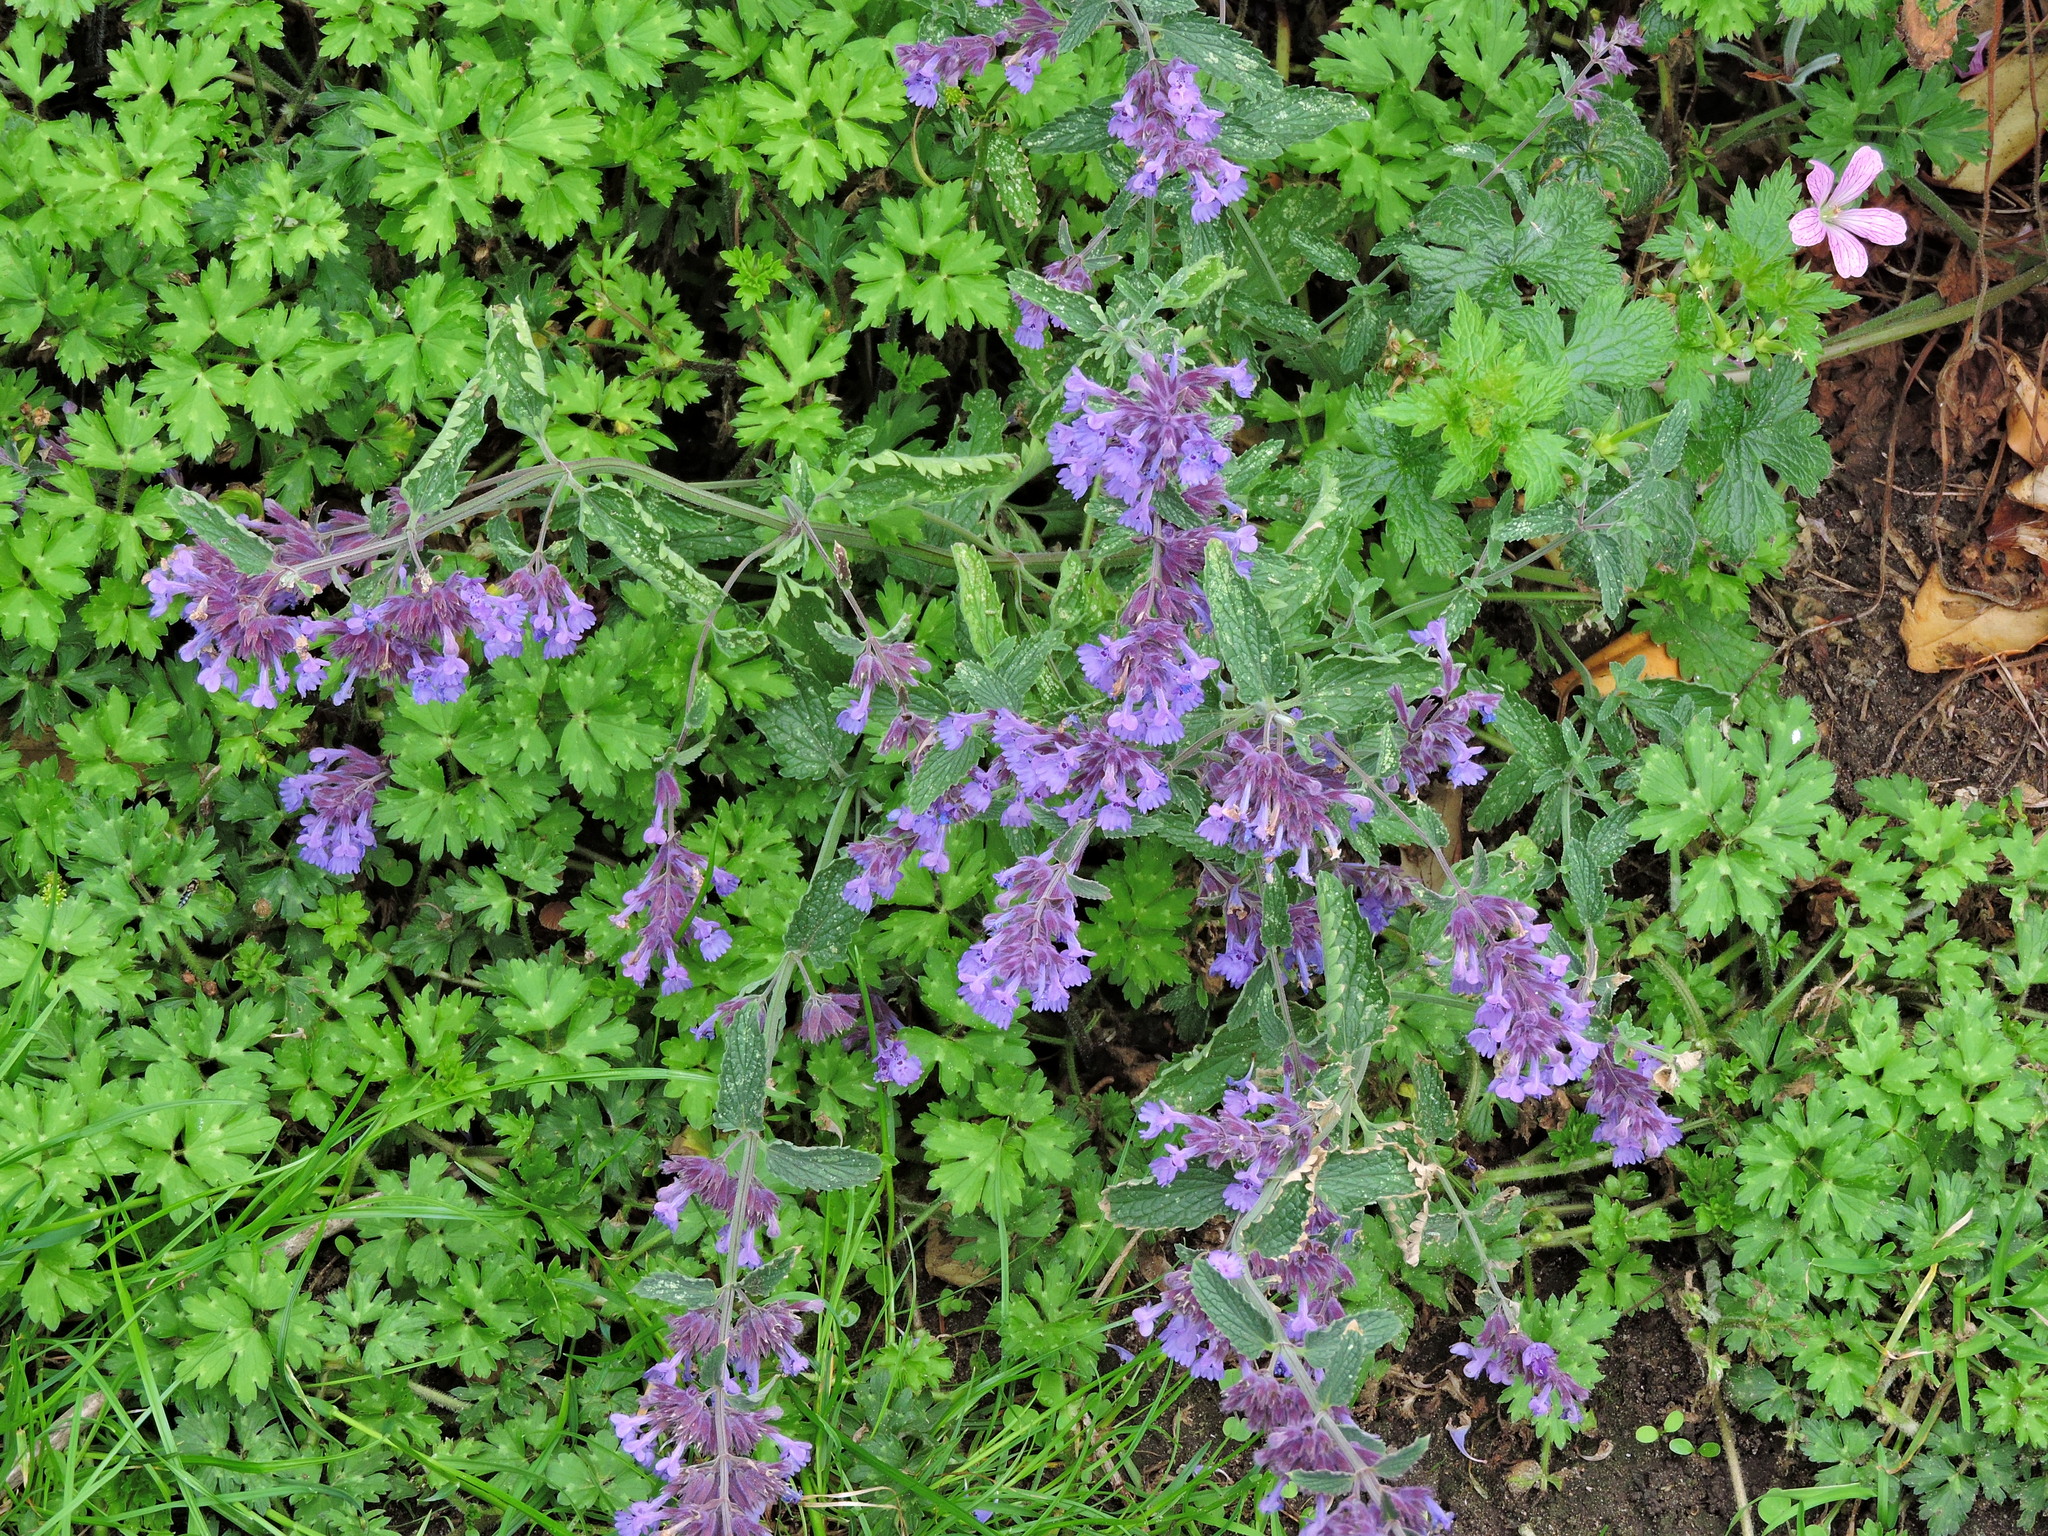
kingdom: Plantae
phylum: Tracheophyta
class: Magnoliopsida
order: Lamiales
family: Lamiaceae
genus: Nepeta
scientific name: Nepeta faassenii
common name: Catmint
